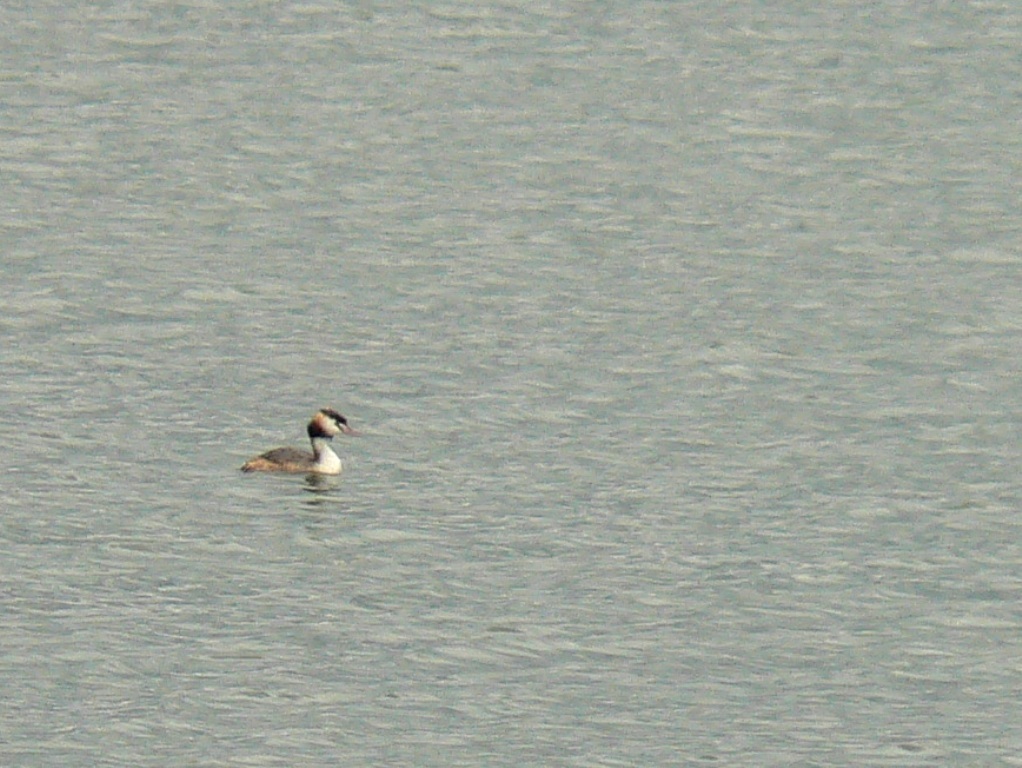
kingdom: Animalia
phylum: Chordata
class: Aves
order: Podicipediformes
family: Podicipedidae
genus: Podiceps
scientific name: Podiceps cristatus
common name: Great crested grebe
